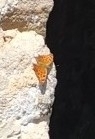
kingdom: Animalia
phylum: Arthropoda
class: Insecta
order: Lepidoptera
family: Nymphalidae
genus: Polygonia
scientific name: Polygonia comma
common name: Eastern comma
